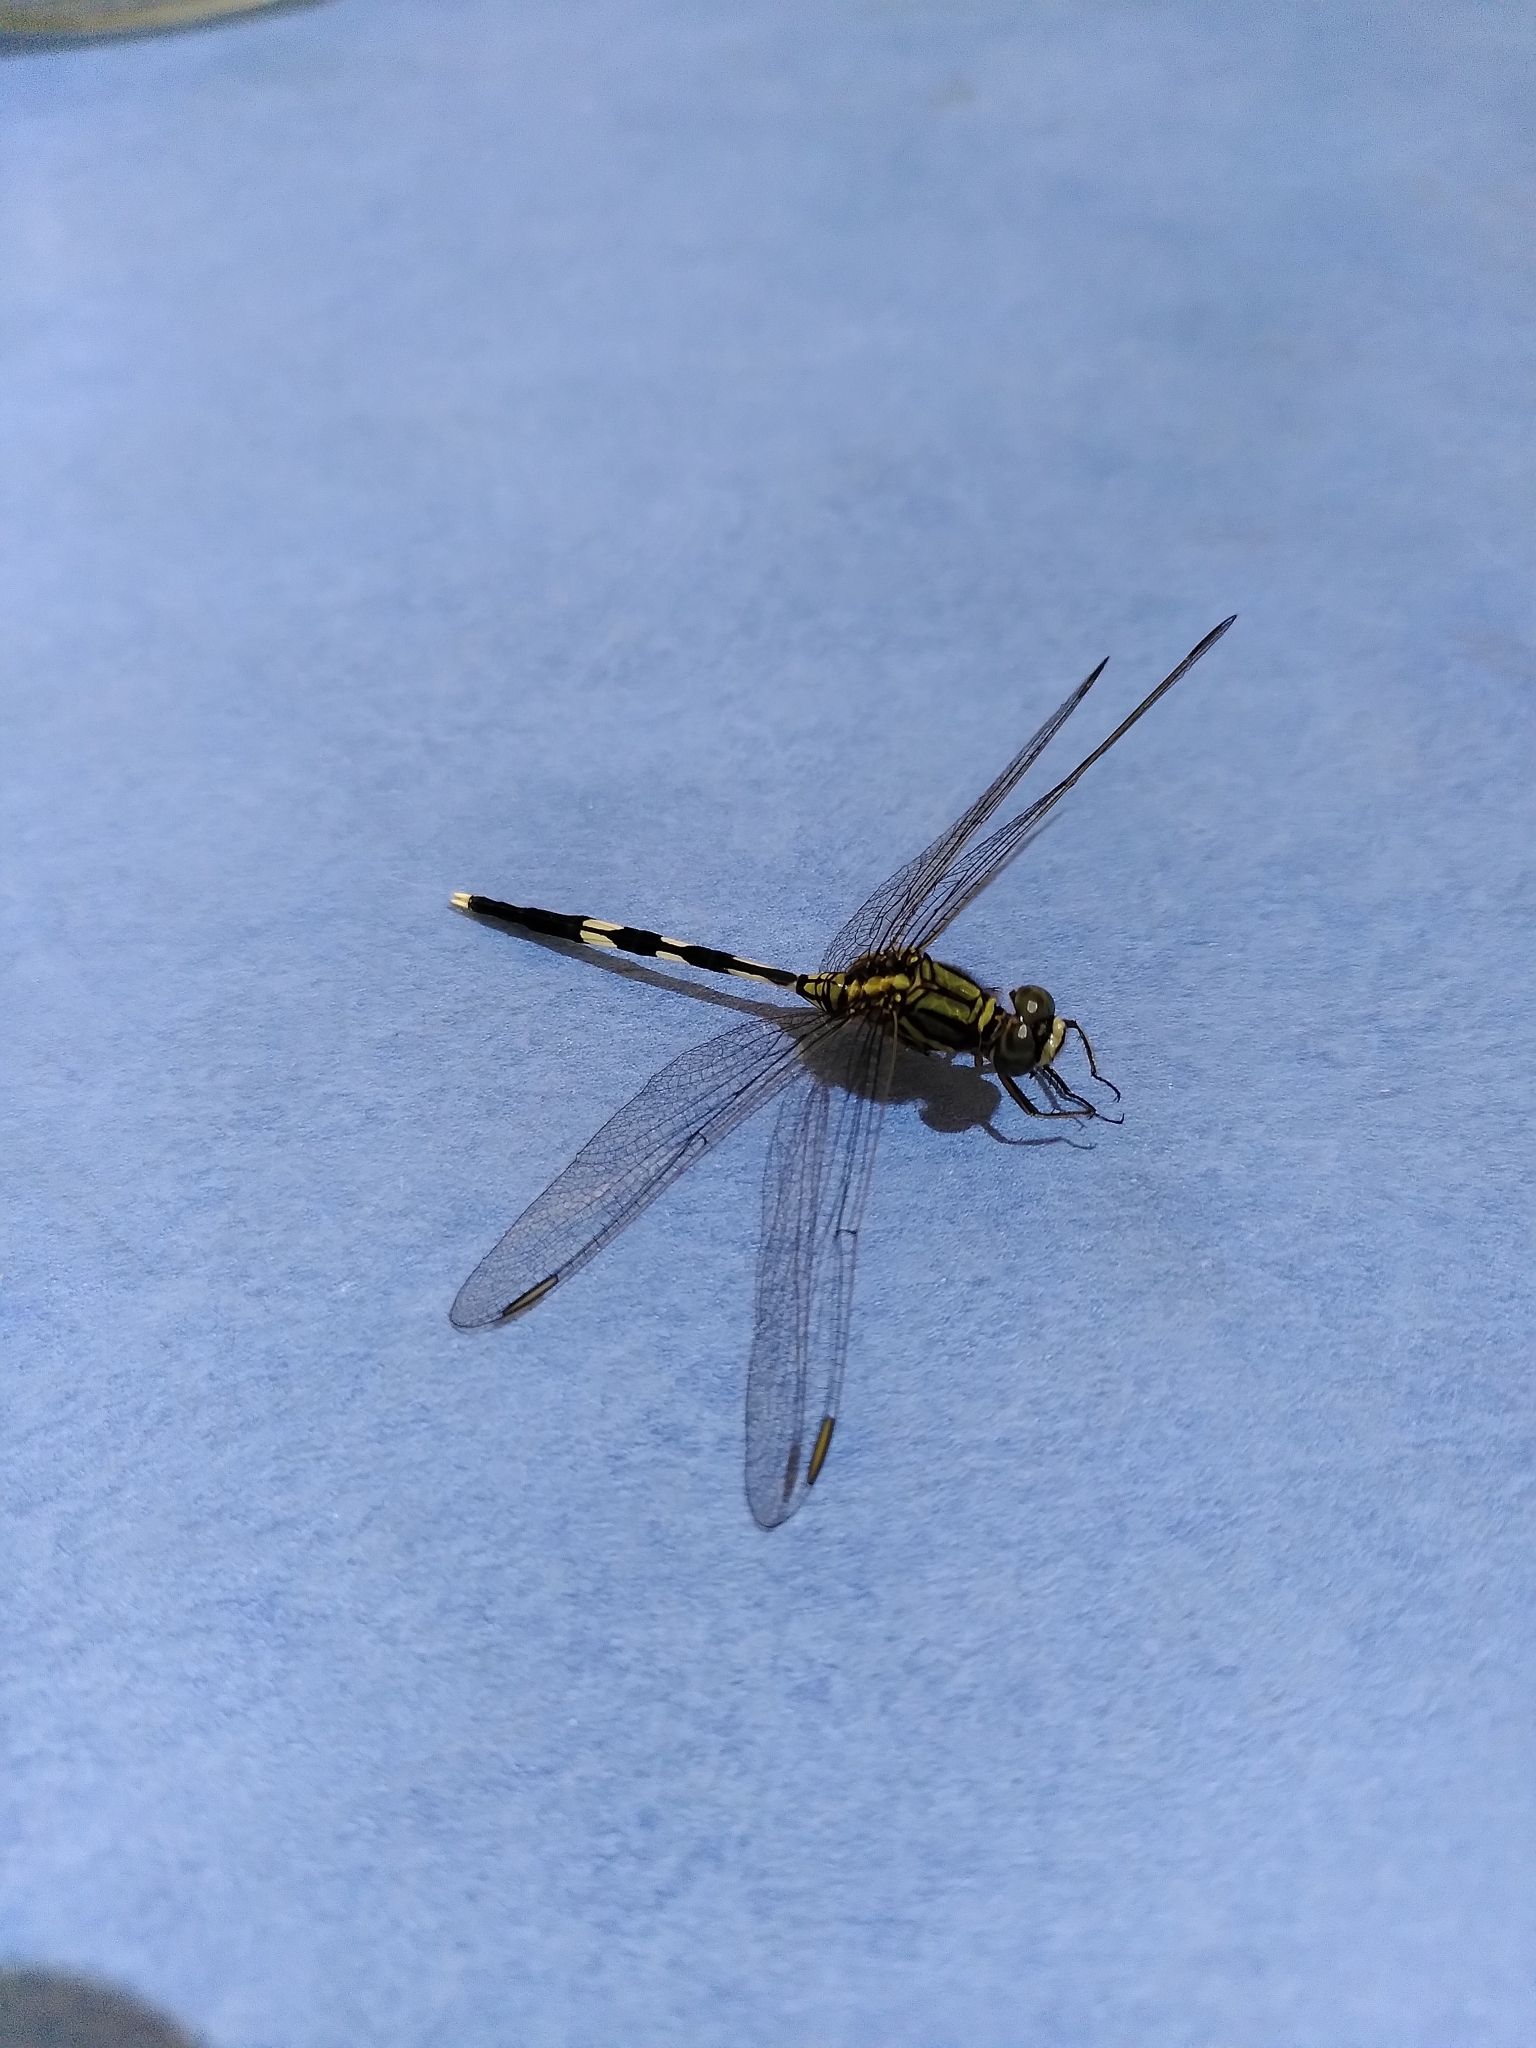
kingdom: Animalia
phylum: Arthropoda
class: Insecta
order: Odonata
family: Libellulidae
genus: Orthetrum
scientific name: Orthetrum sabina
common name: Slender skimmer
